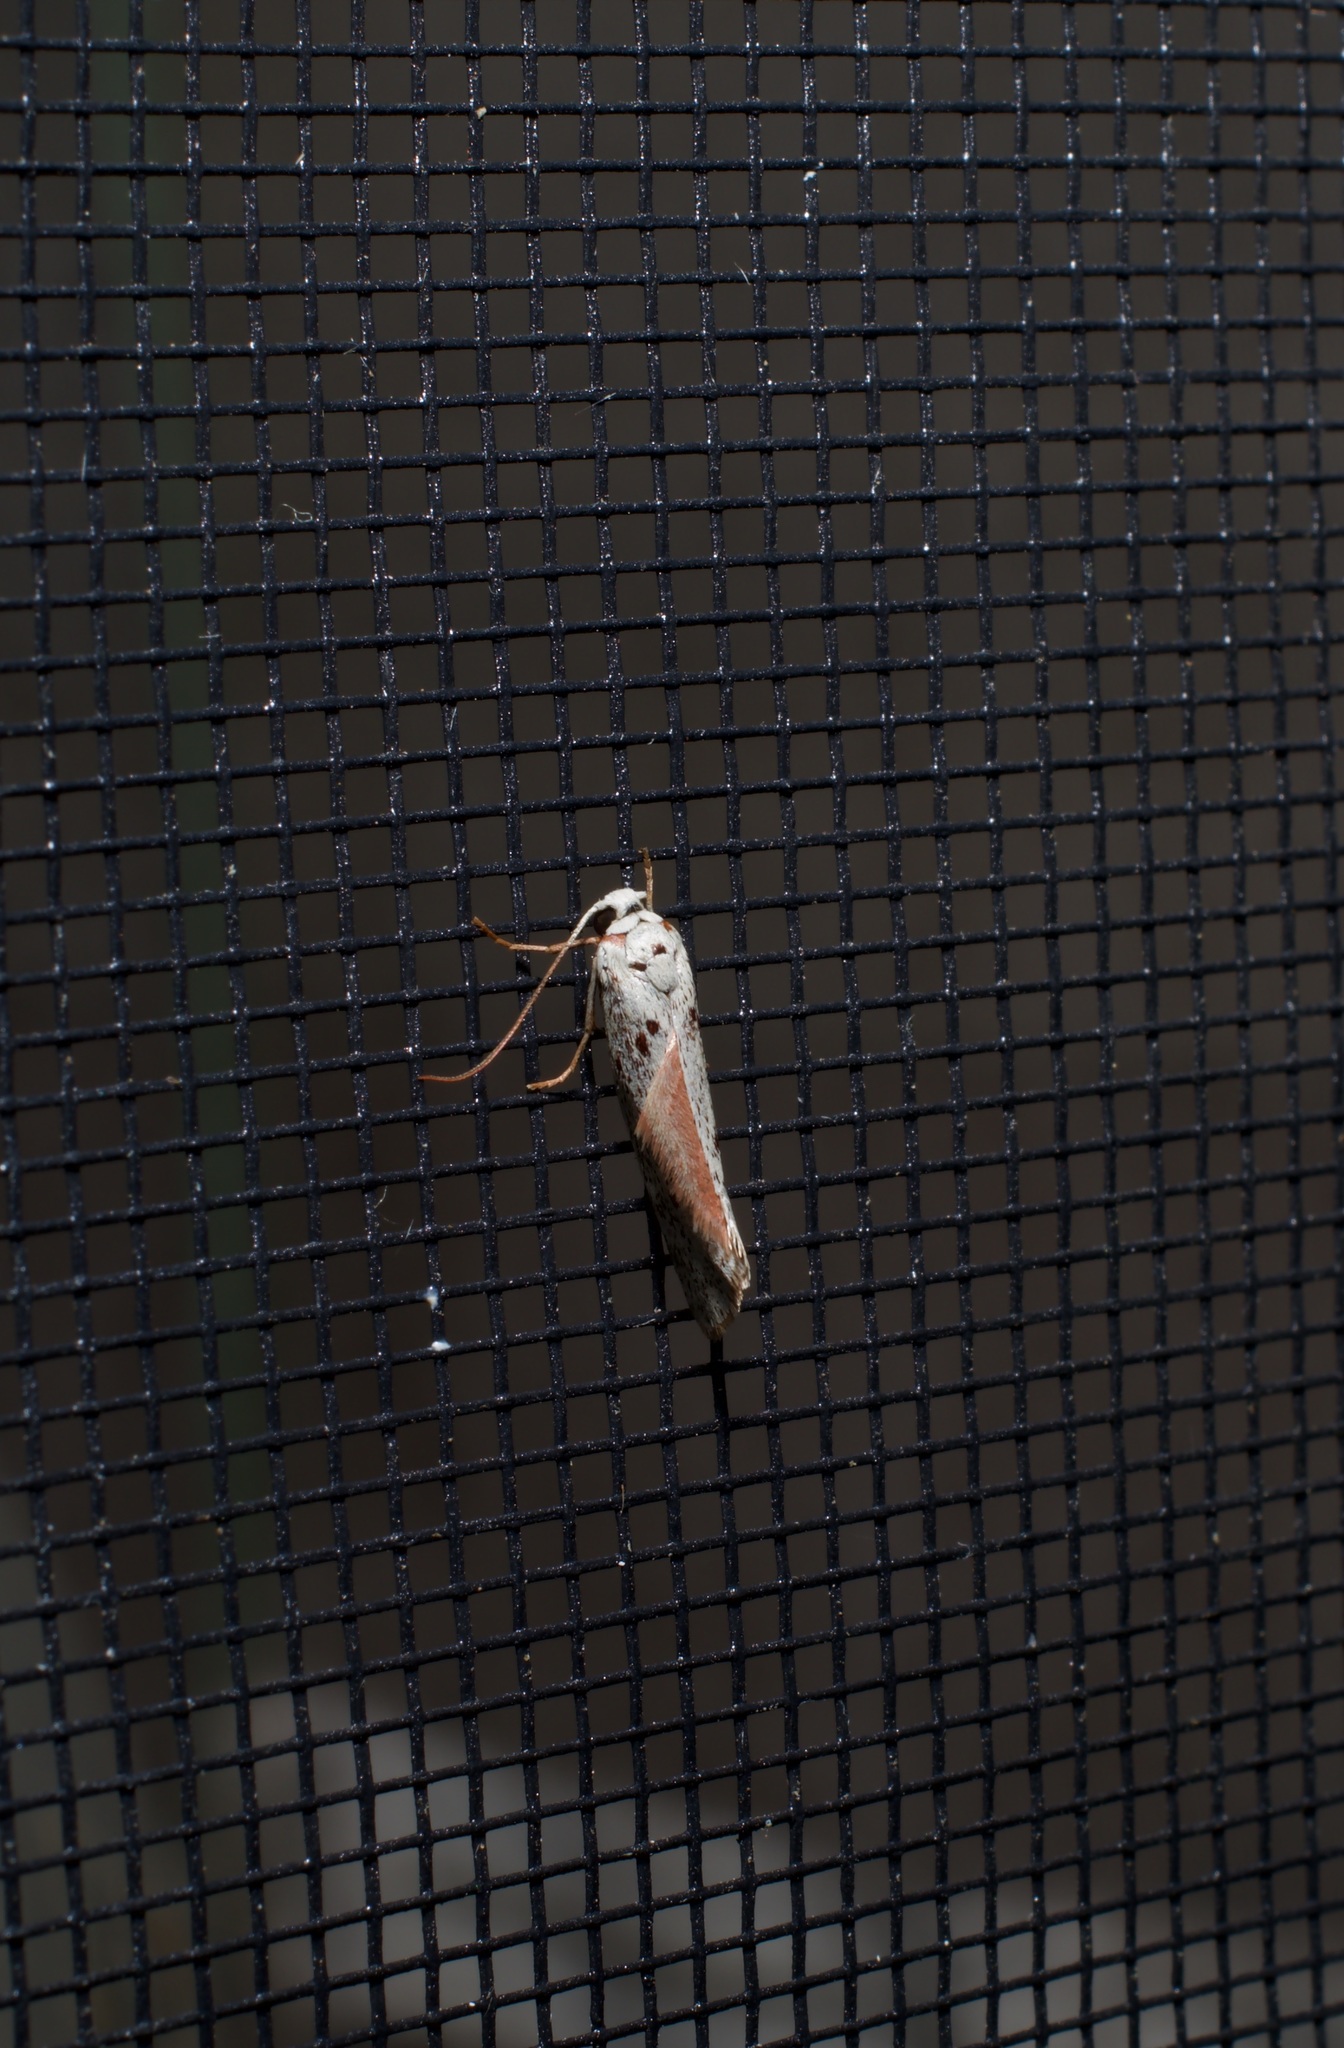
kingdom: Animalia
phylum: Arthropoda
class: Insecta
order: Lepidoptera
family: Lacturidae
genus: Lactura
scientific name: Lactura
